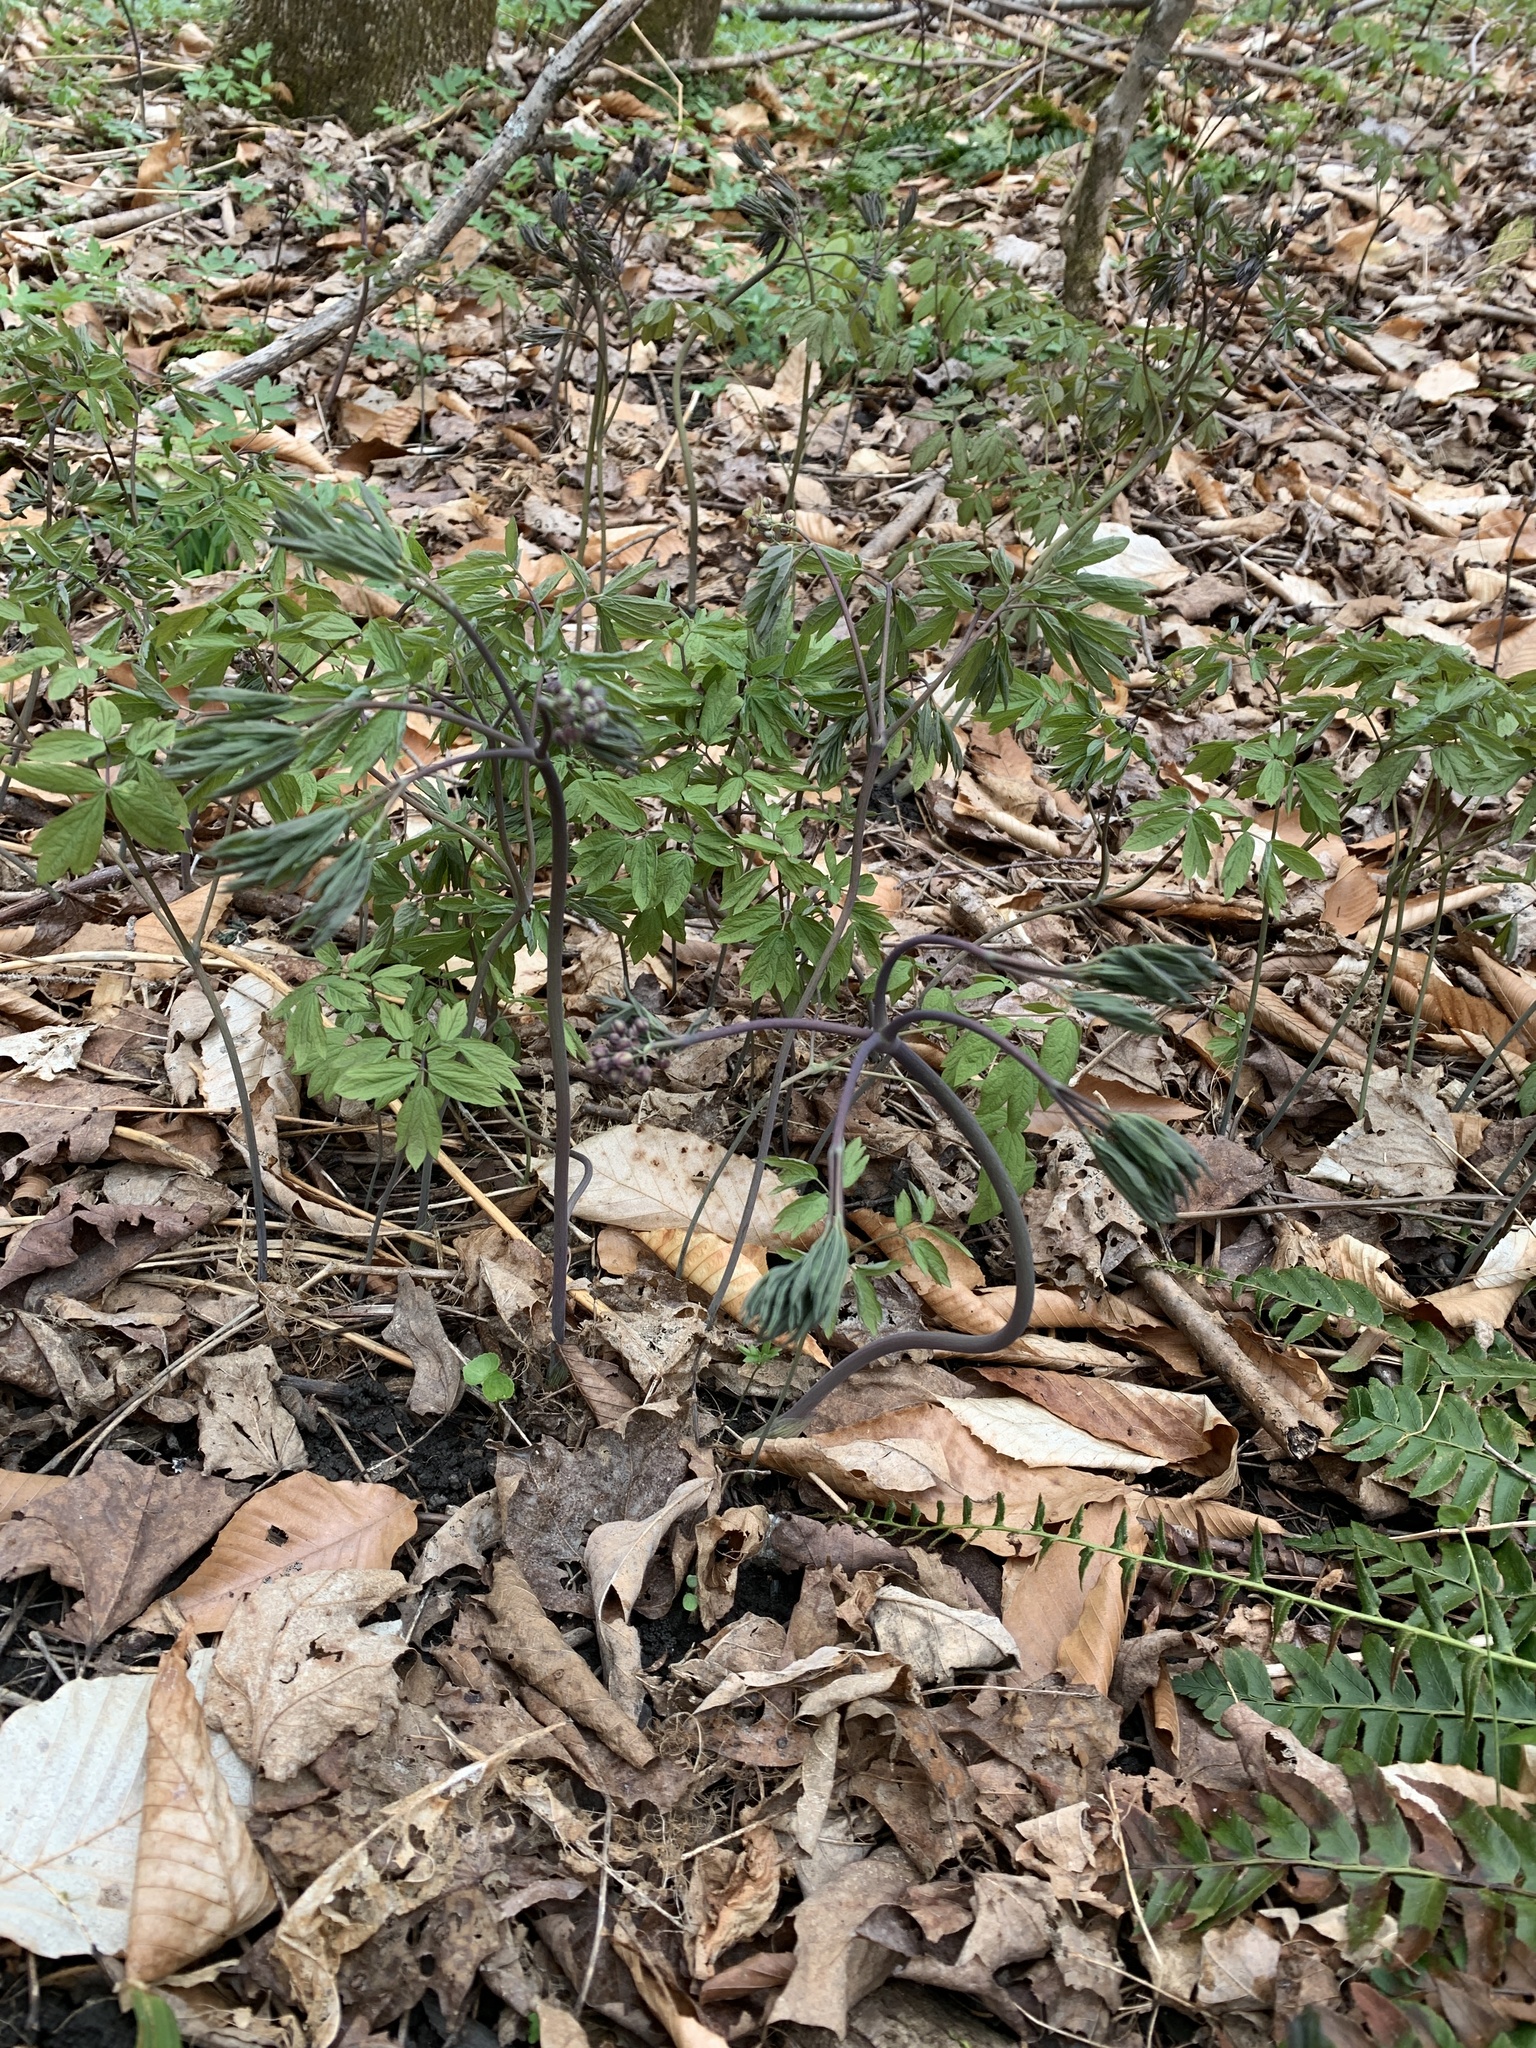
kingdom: Plantae
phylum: Tracheophyta
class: Magnoliopsida
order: Ranunculales
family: Berberidaceae
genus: Caulophyllum
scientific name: Caulophyllum giganteum
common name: Blue cohosh
